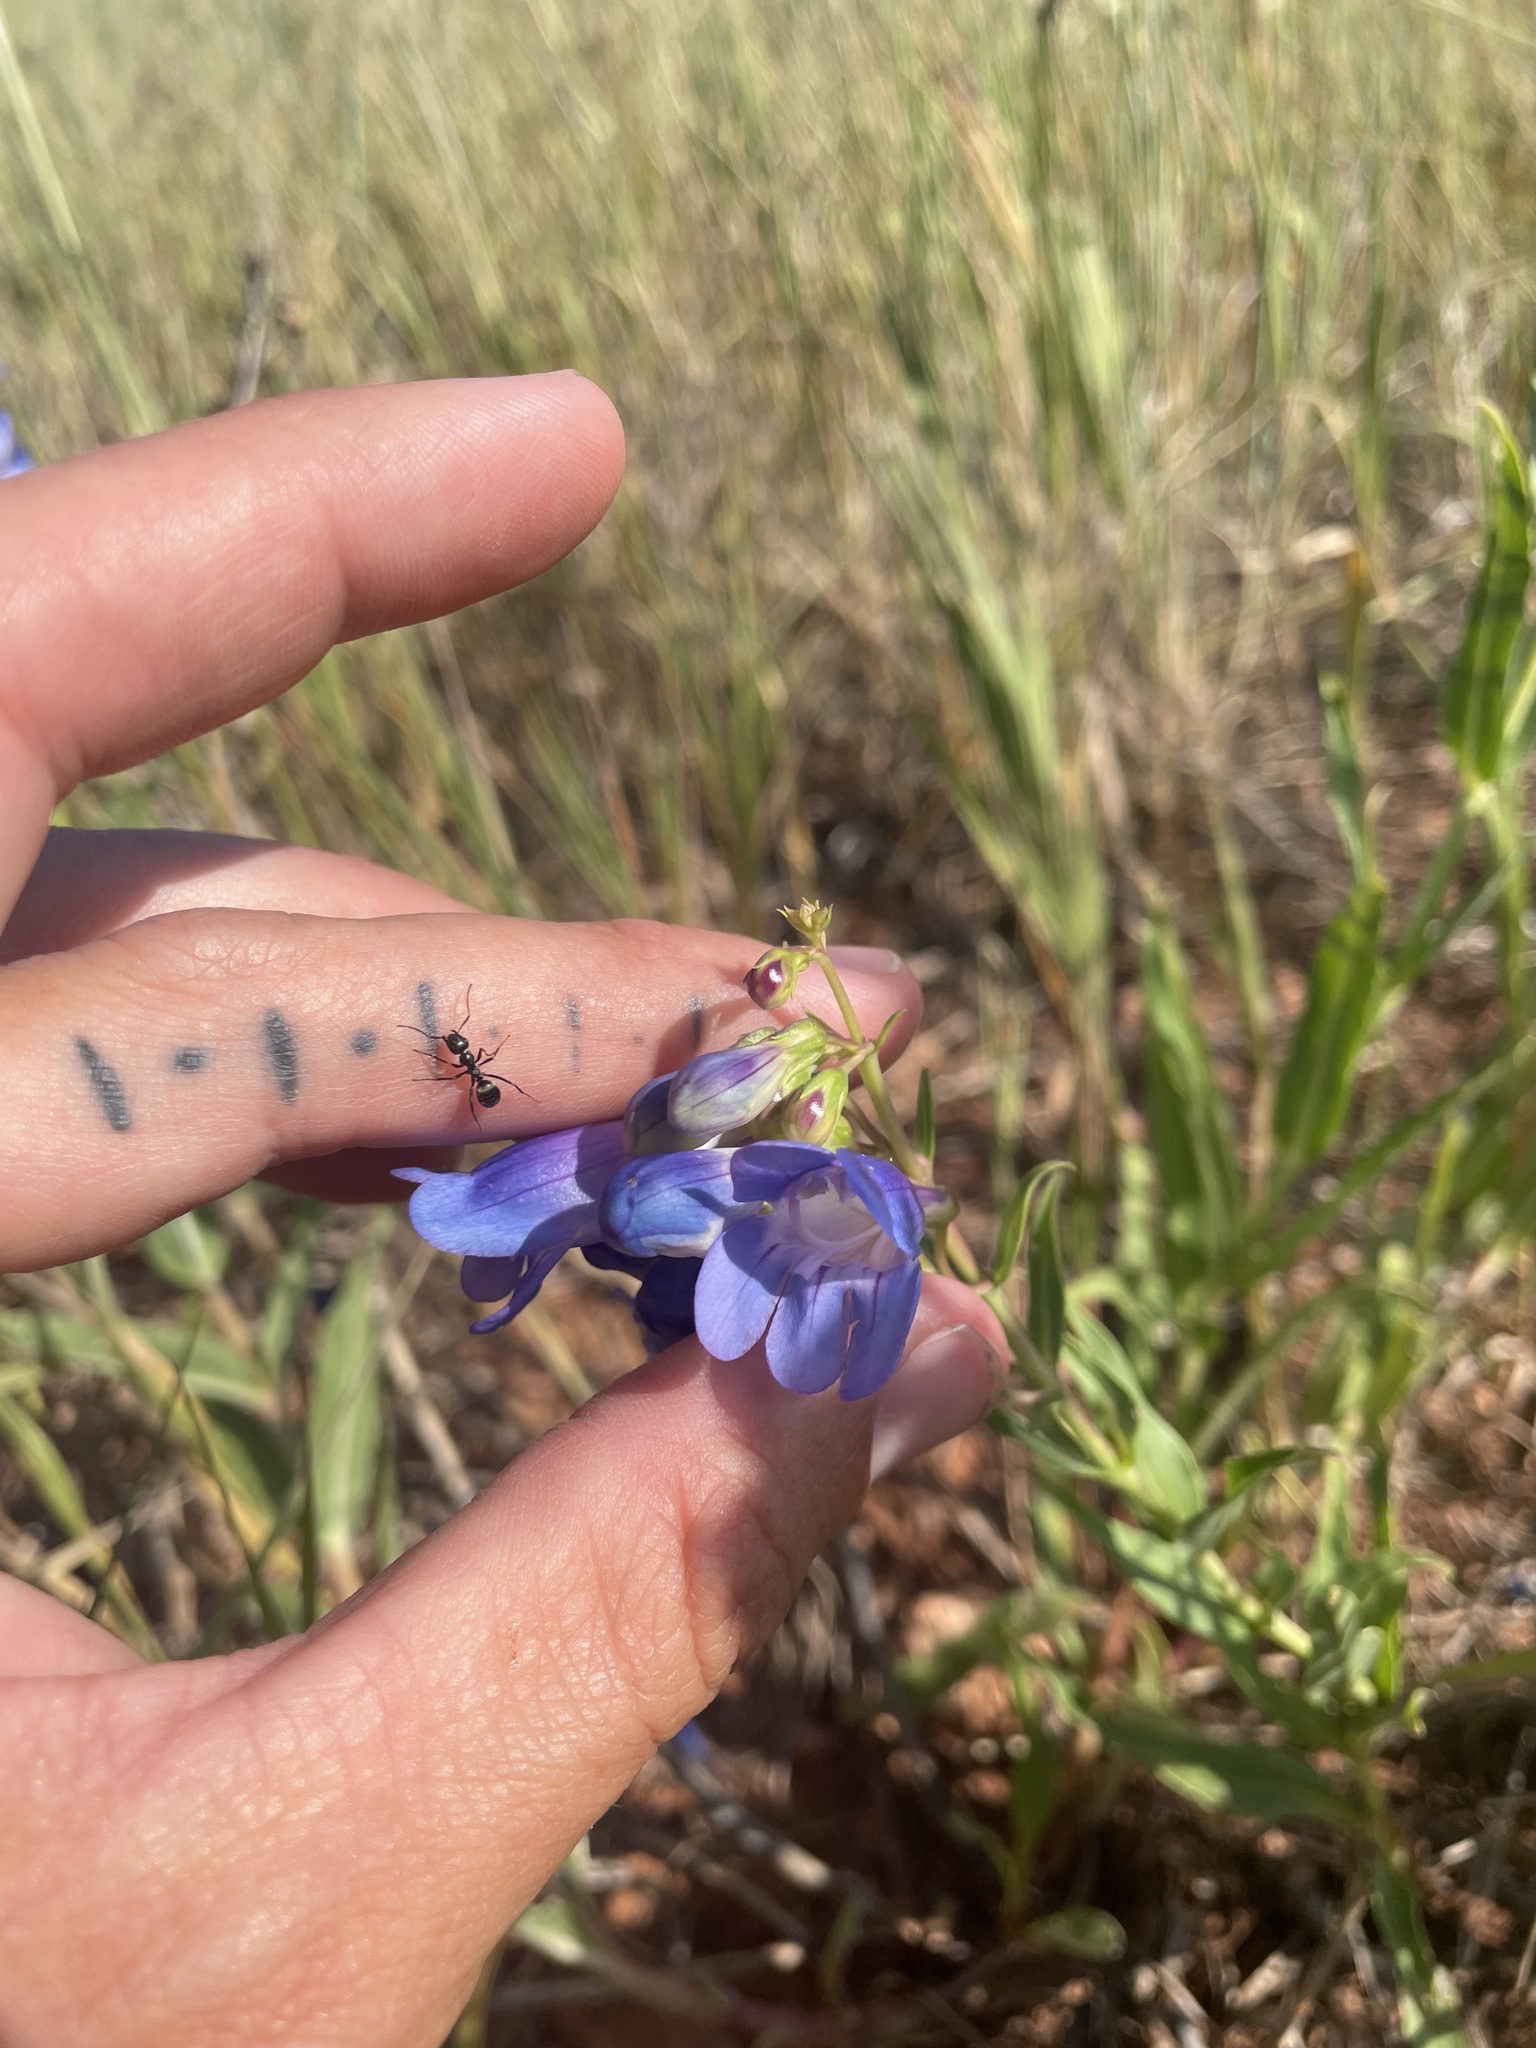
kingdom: Plantae
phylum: Tracheophyta
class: Magnoliopsida
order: Lamiales
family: Plantaginaceae
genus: Penstemon
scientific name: Penstemon glaber
